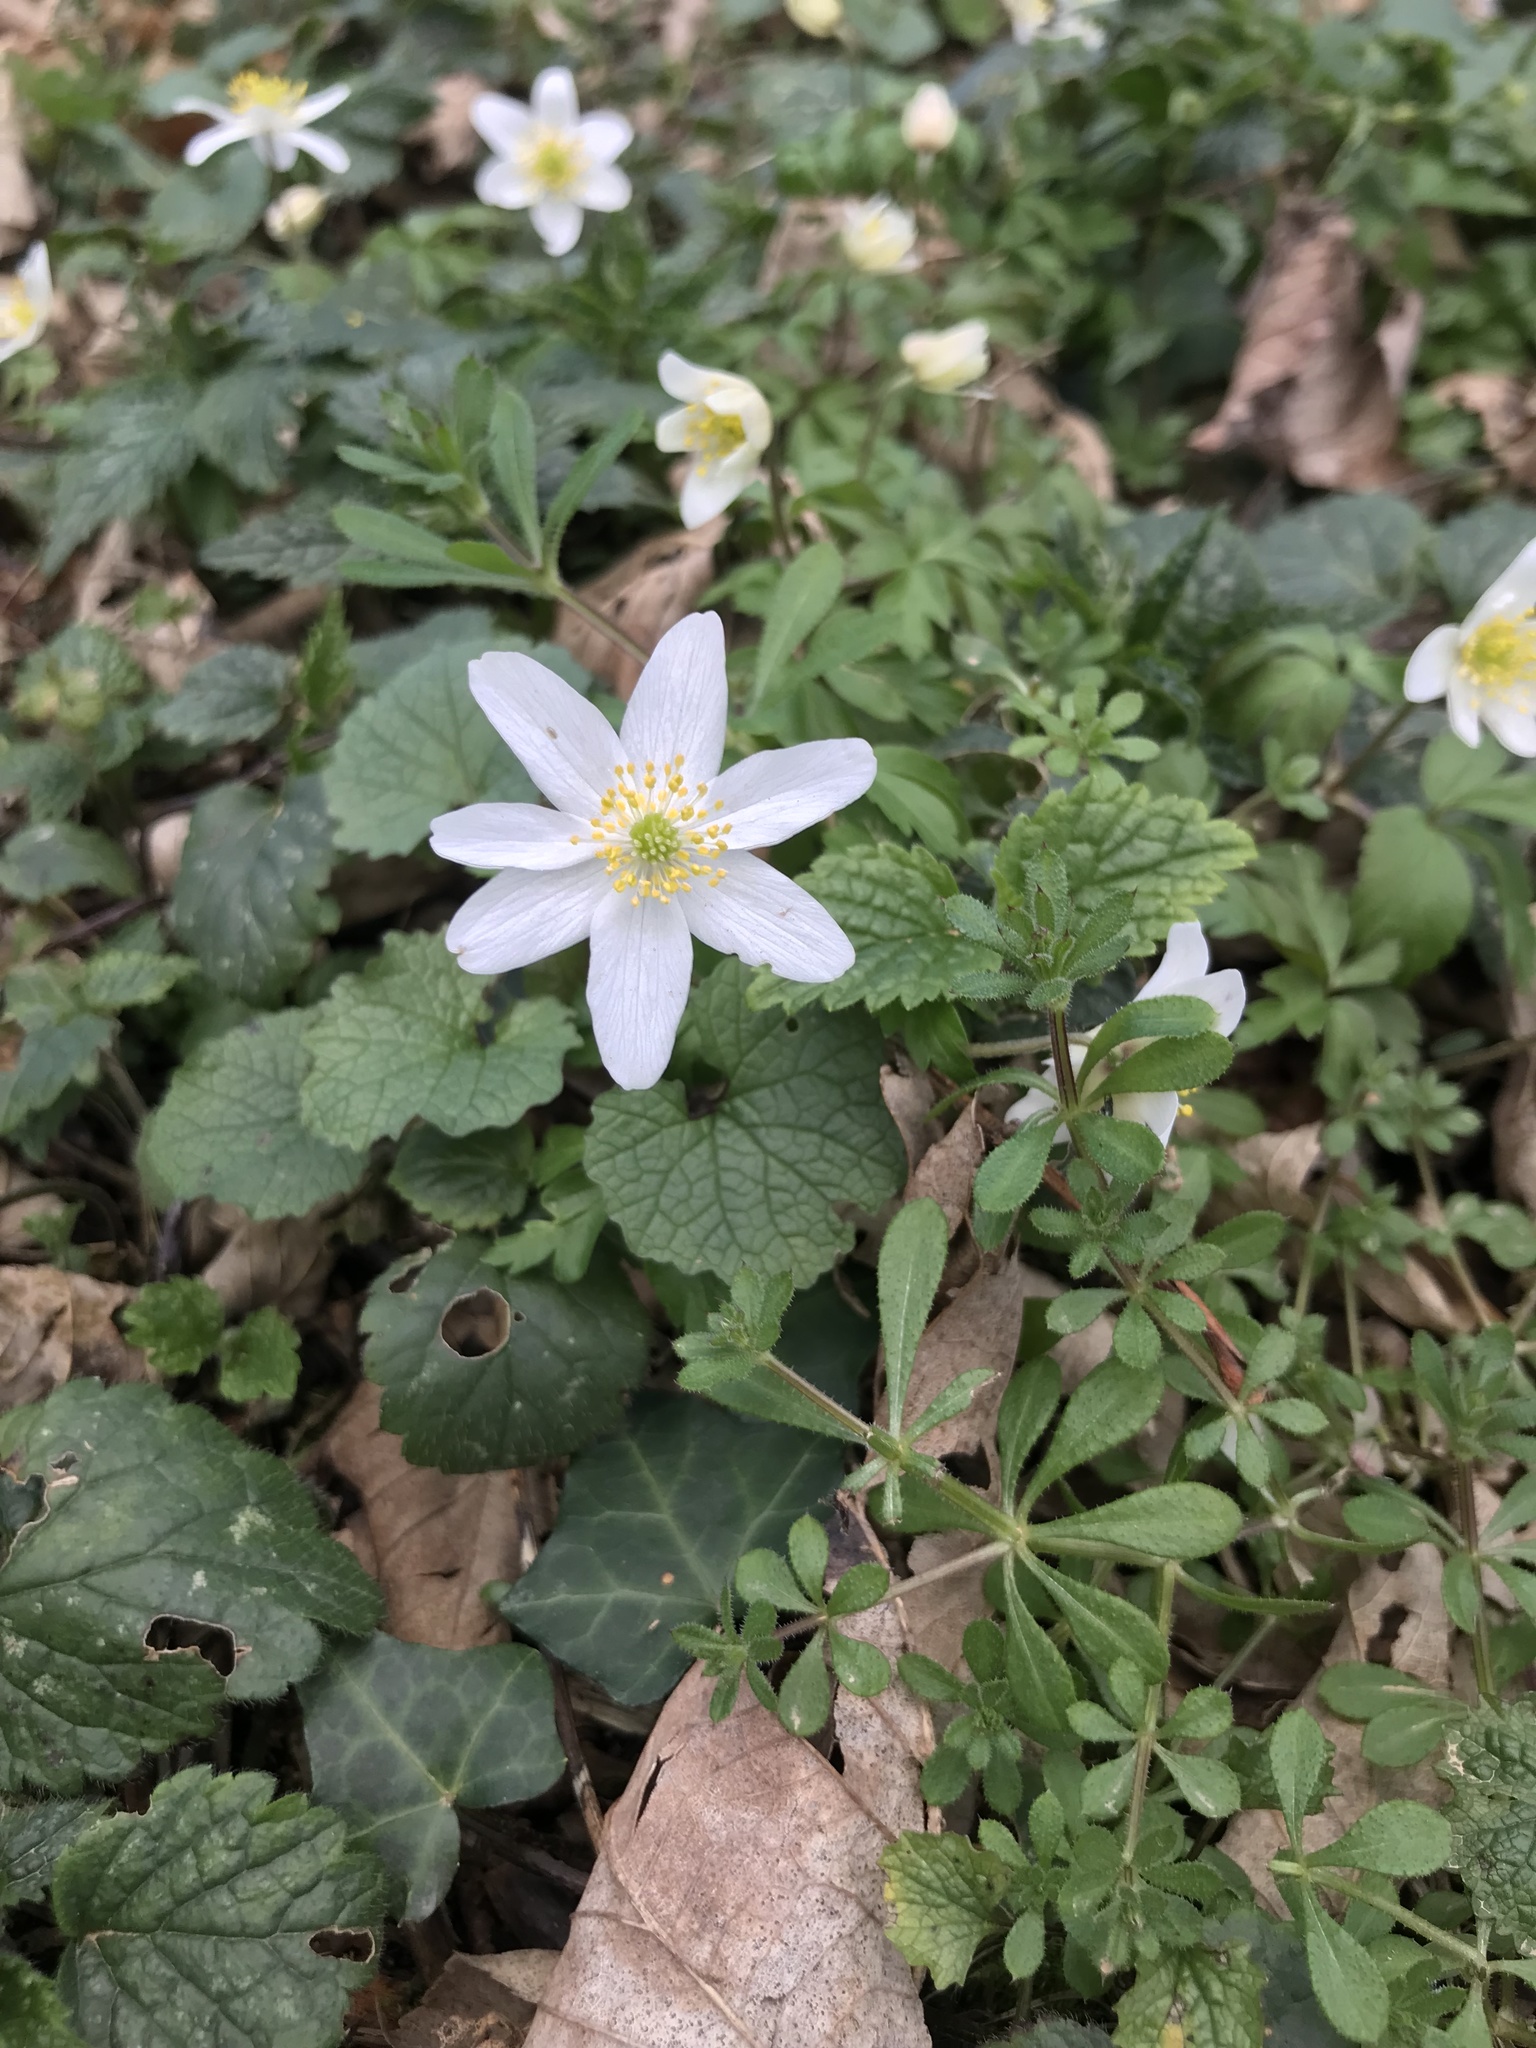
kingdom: Plantae
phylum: Tracheophyta
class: Magnoliopsida
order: Ranunculales
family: Ranunculaceae
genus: Anemone
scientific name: Anemone nemorosa
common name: Wood anemone
